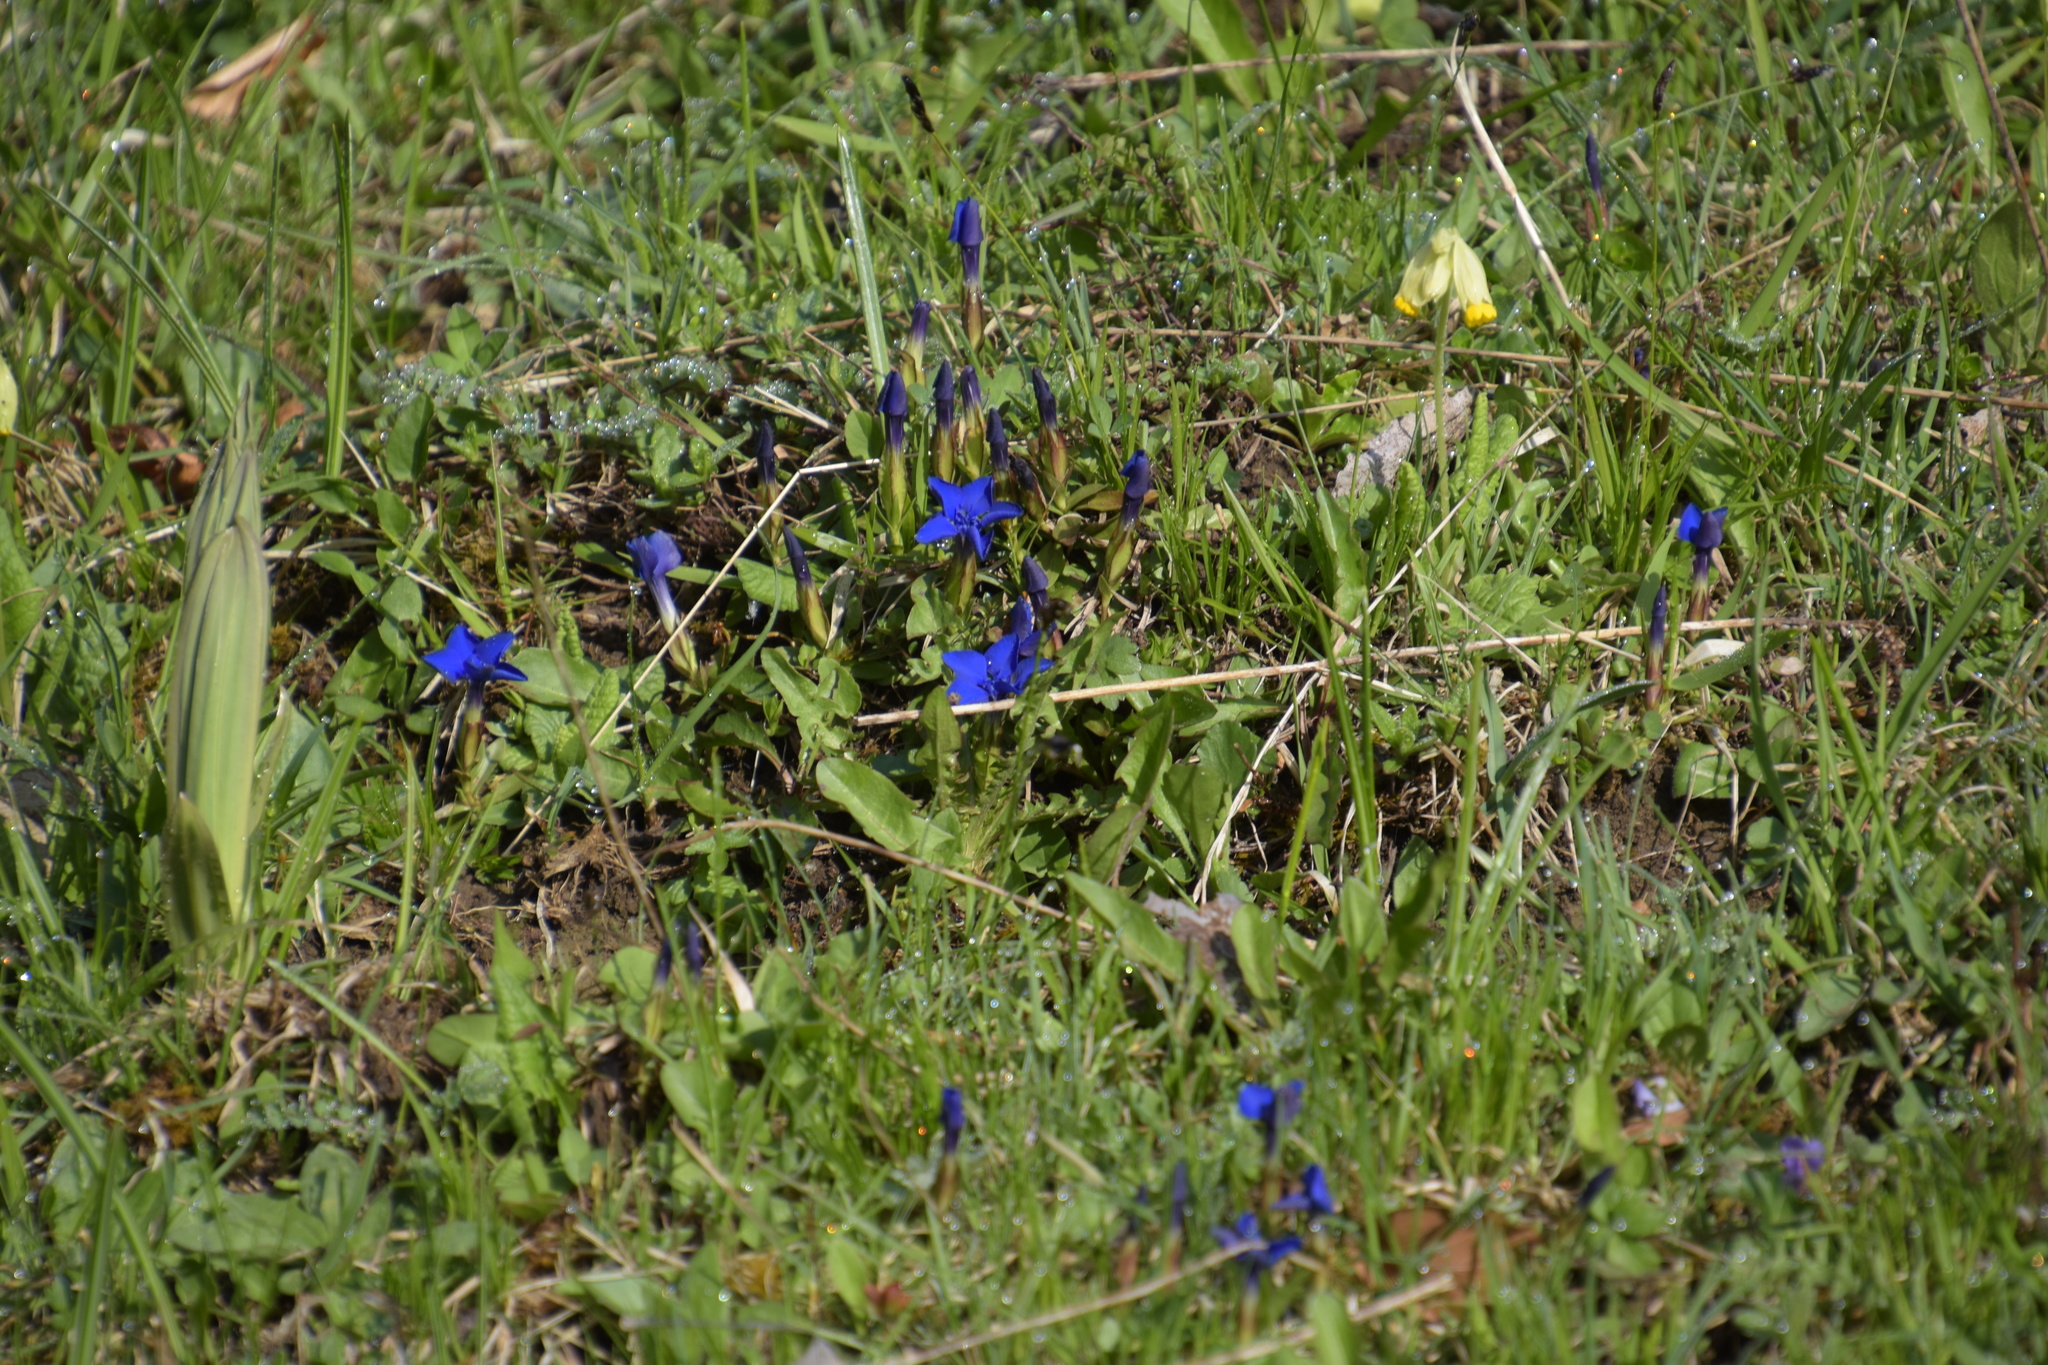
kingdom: Plantae
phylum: Tracheophyta
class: Magnoliopsida
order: Gentianales
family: Gentianaceae
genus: Gentiana
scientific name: Gentiana verna
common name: Spring gentian
